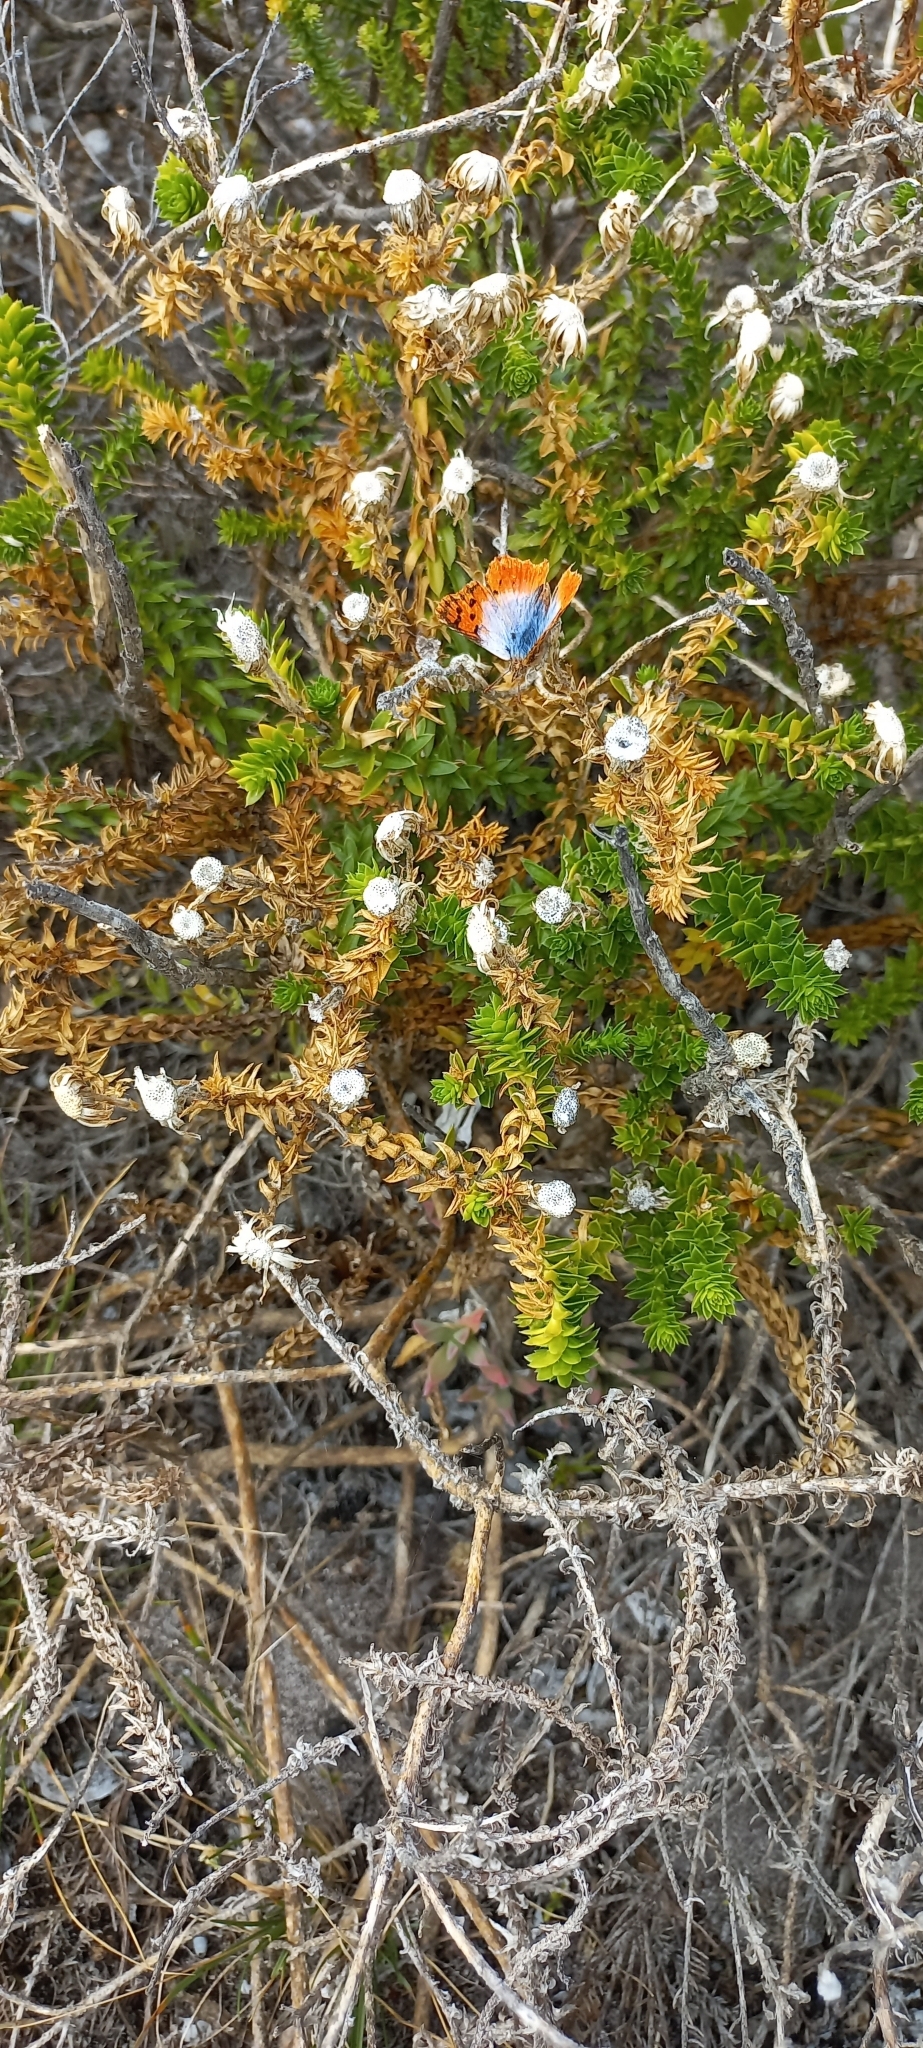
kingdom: Plantae
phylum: Tracheophyta
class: Magnoliopsida
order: Asterales
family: Asteraceae
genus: Felicia
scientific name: Felicia echinata
